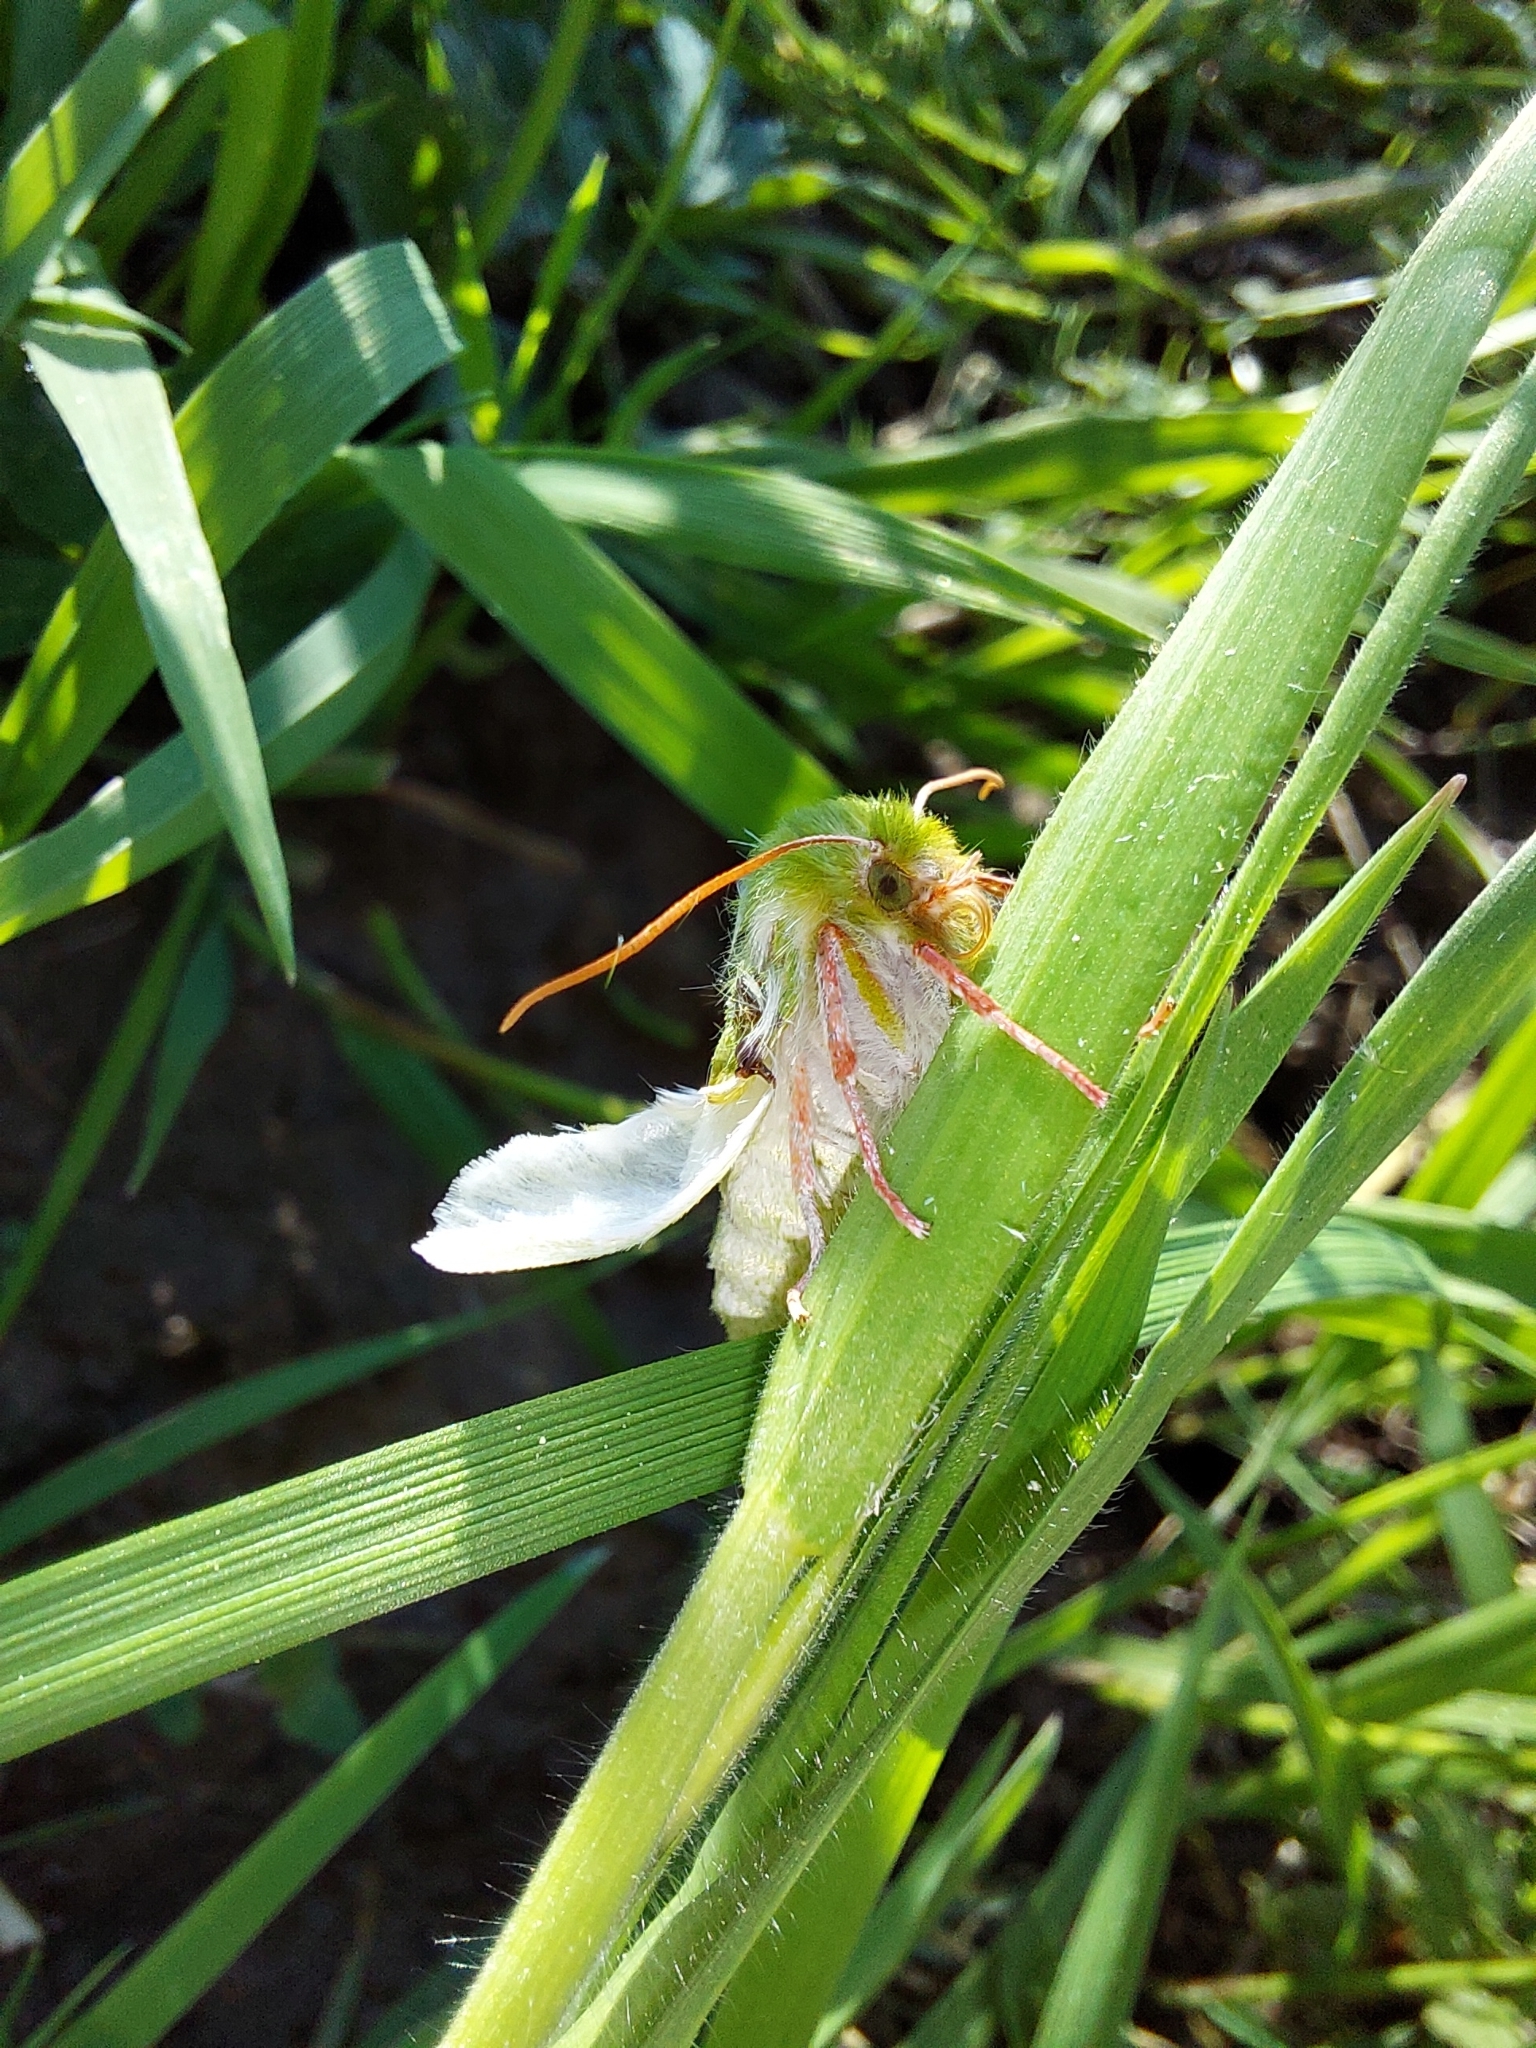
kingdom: Animalia
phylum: Arthropoda
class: Insecta
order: Lepidoptera
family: Nolidae
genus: Pseudoips
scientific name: Pseudoips prasinana
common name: Green silver-lines
